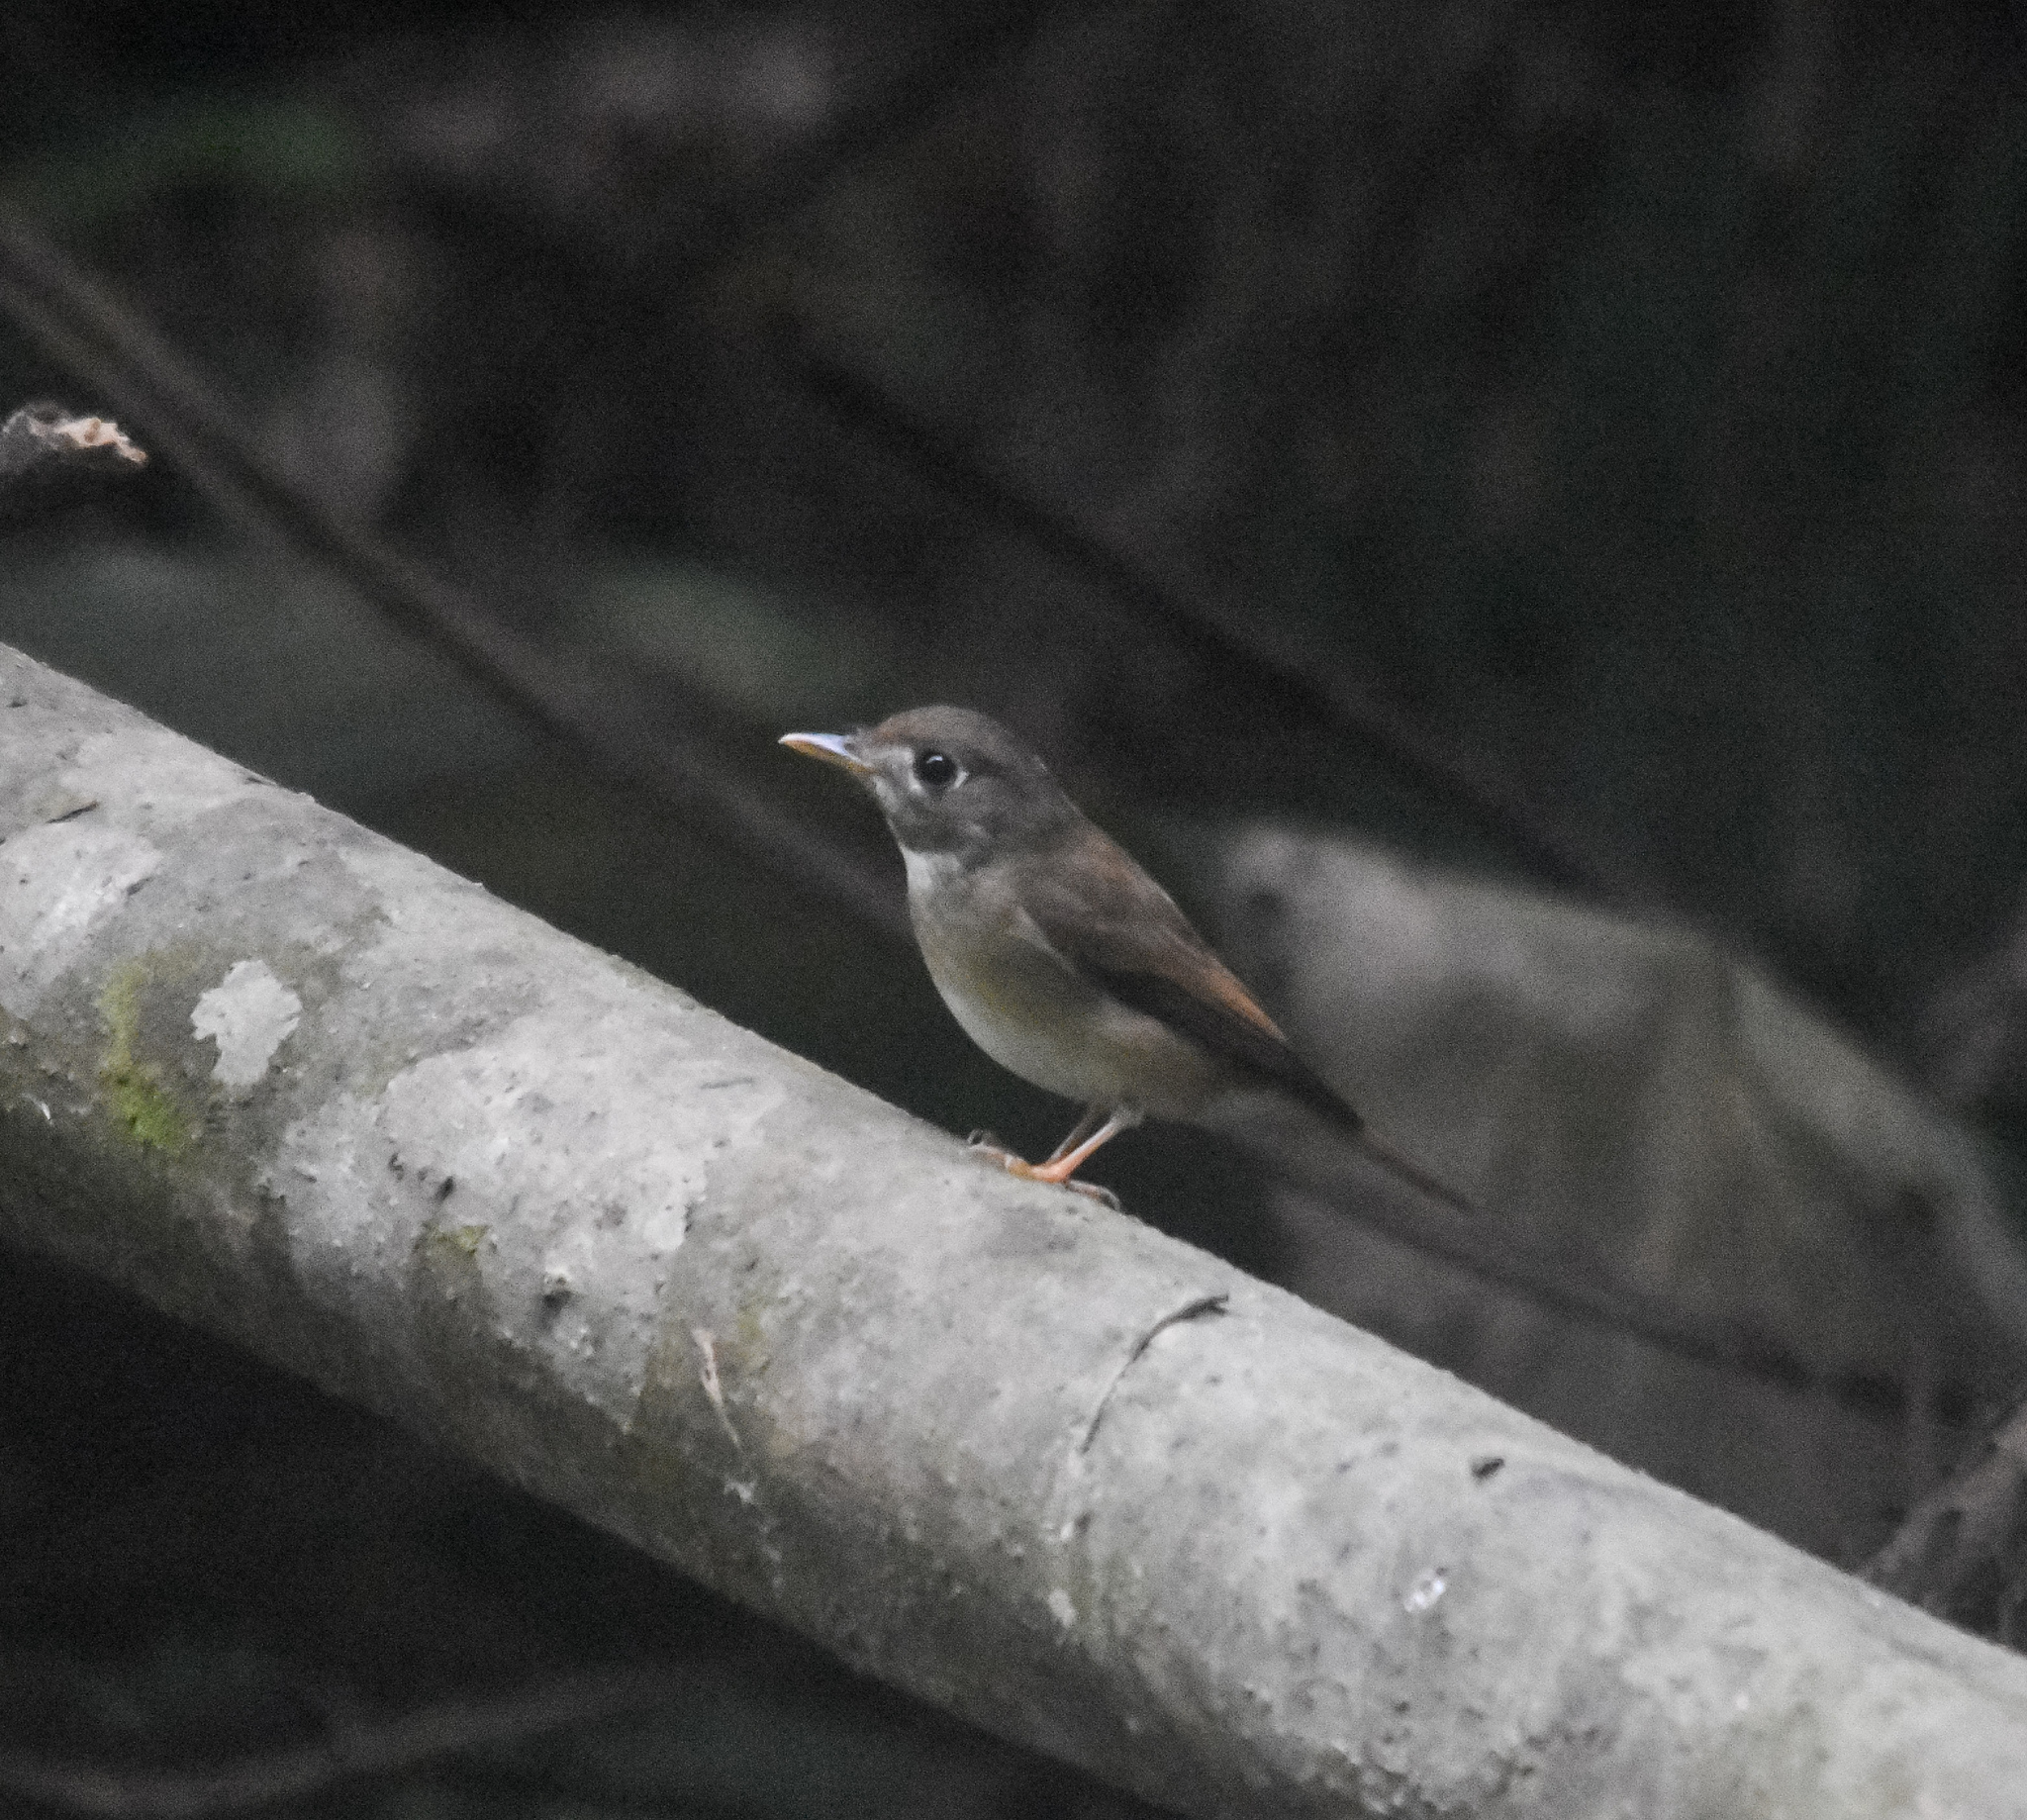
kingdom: Animalia
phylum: Chordata
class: Aves
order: Passeriformes
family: Muscicapidae
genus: Muscicapa
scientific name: Muscicapa muttui
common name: Brown-breasted flycatcher
